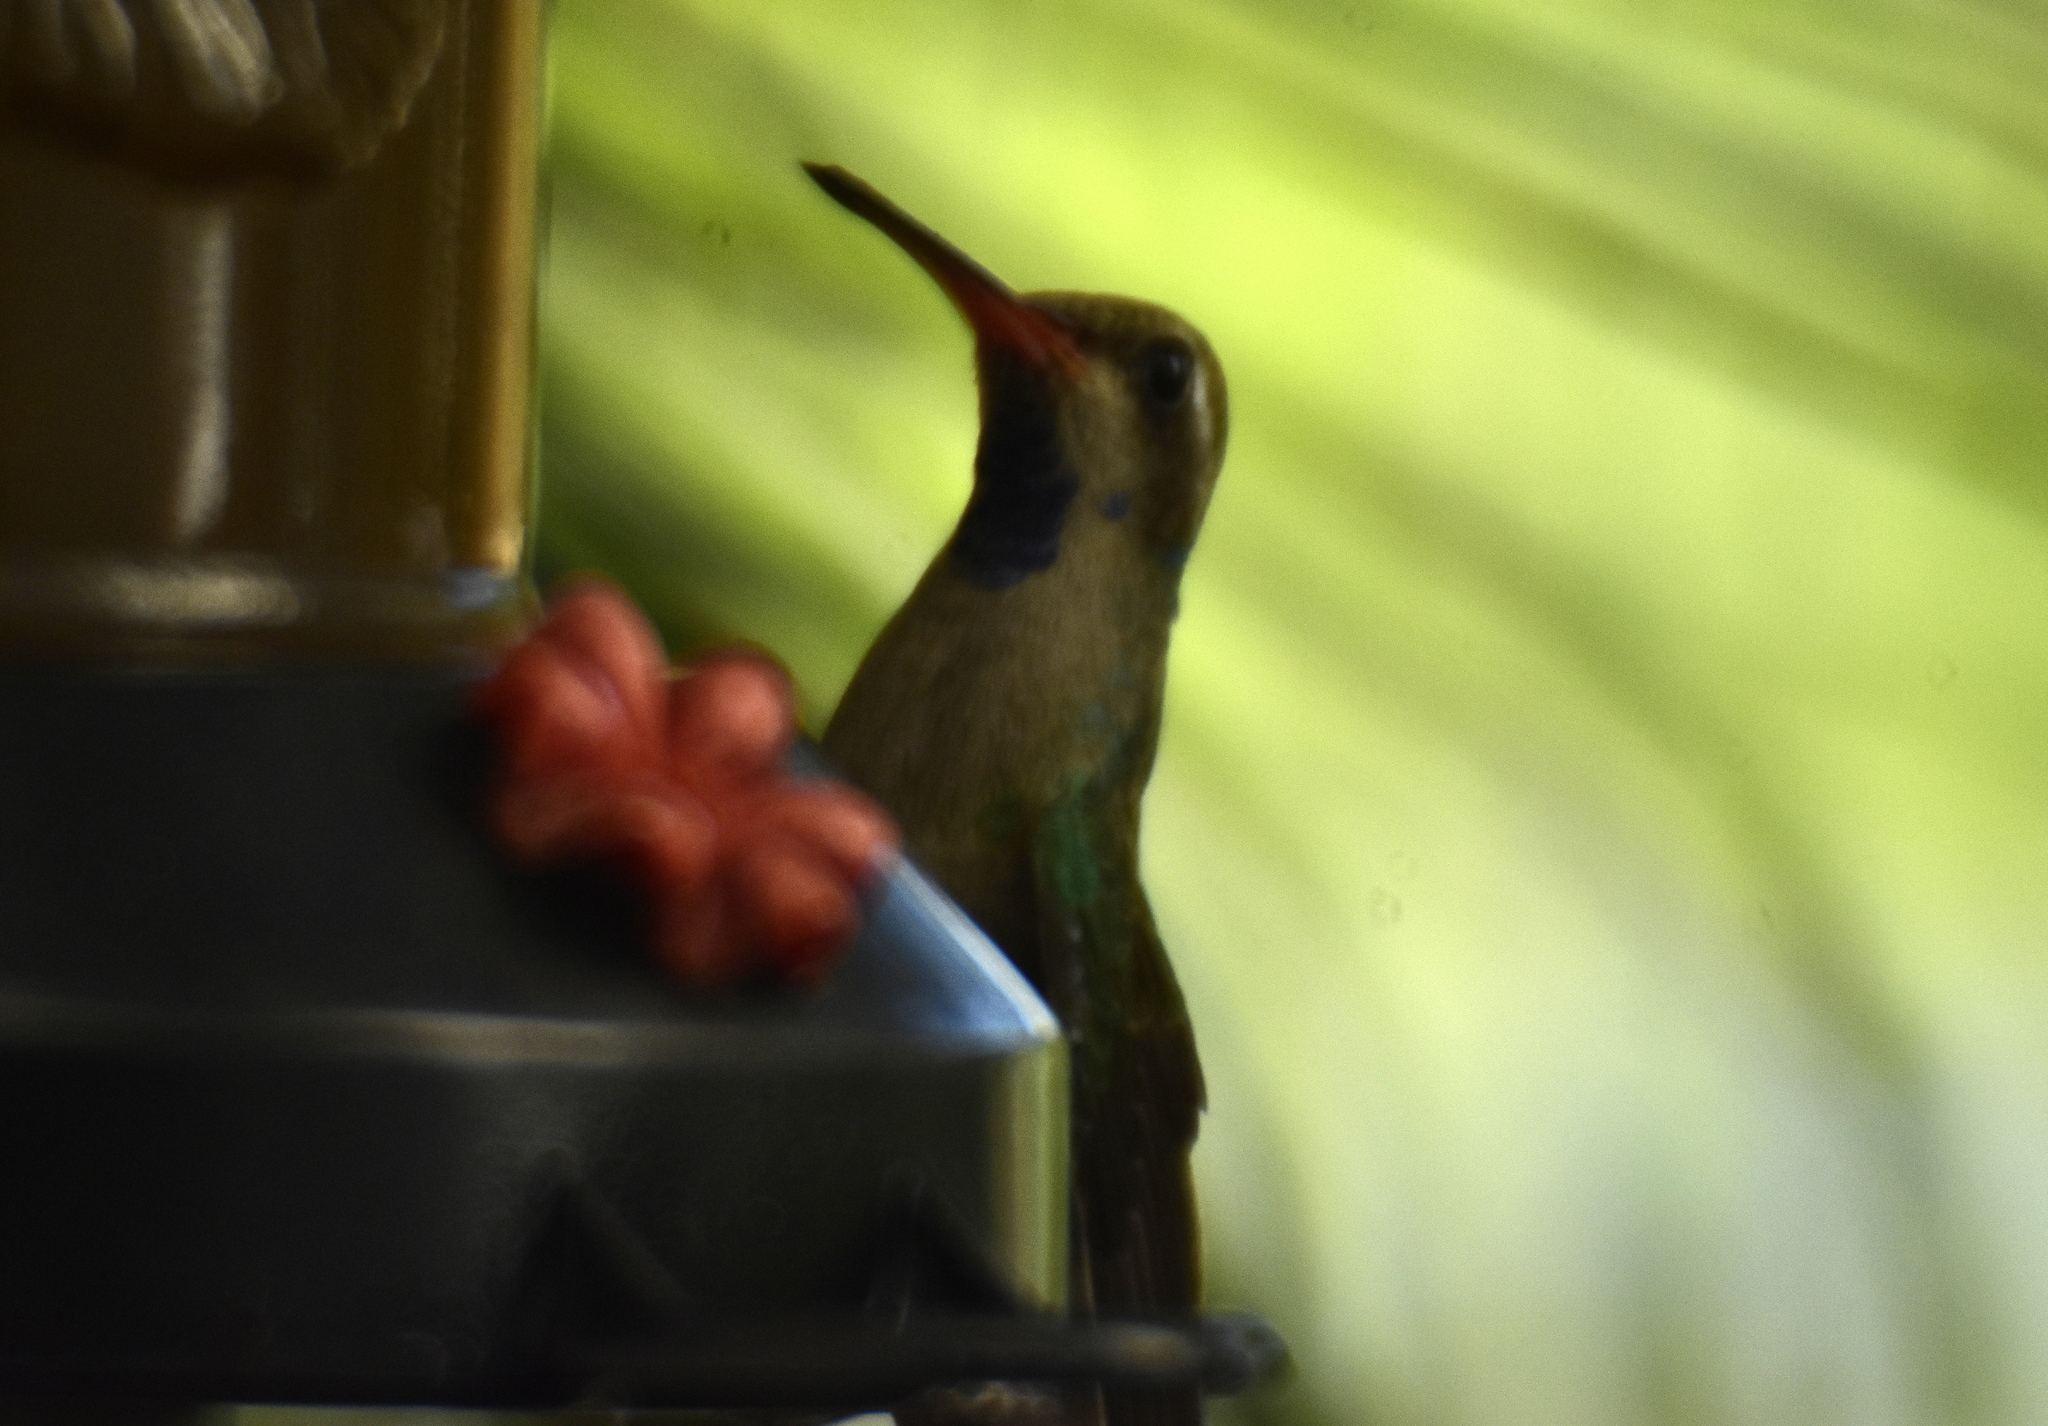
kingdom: Animalia
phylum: Chordata
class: Aves
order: Apodiformes
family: Trochilidae
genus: Cynanthus
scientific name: Cynanthus latirostris
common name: Broad-billed hummingbird
